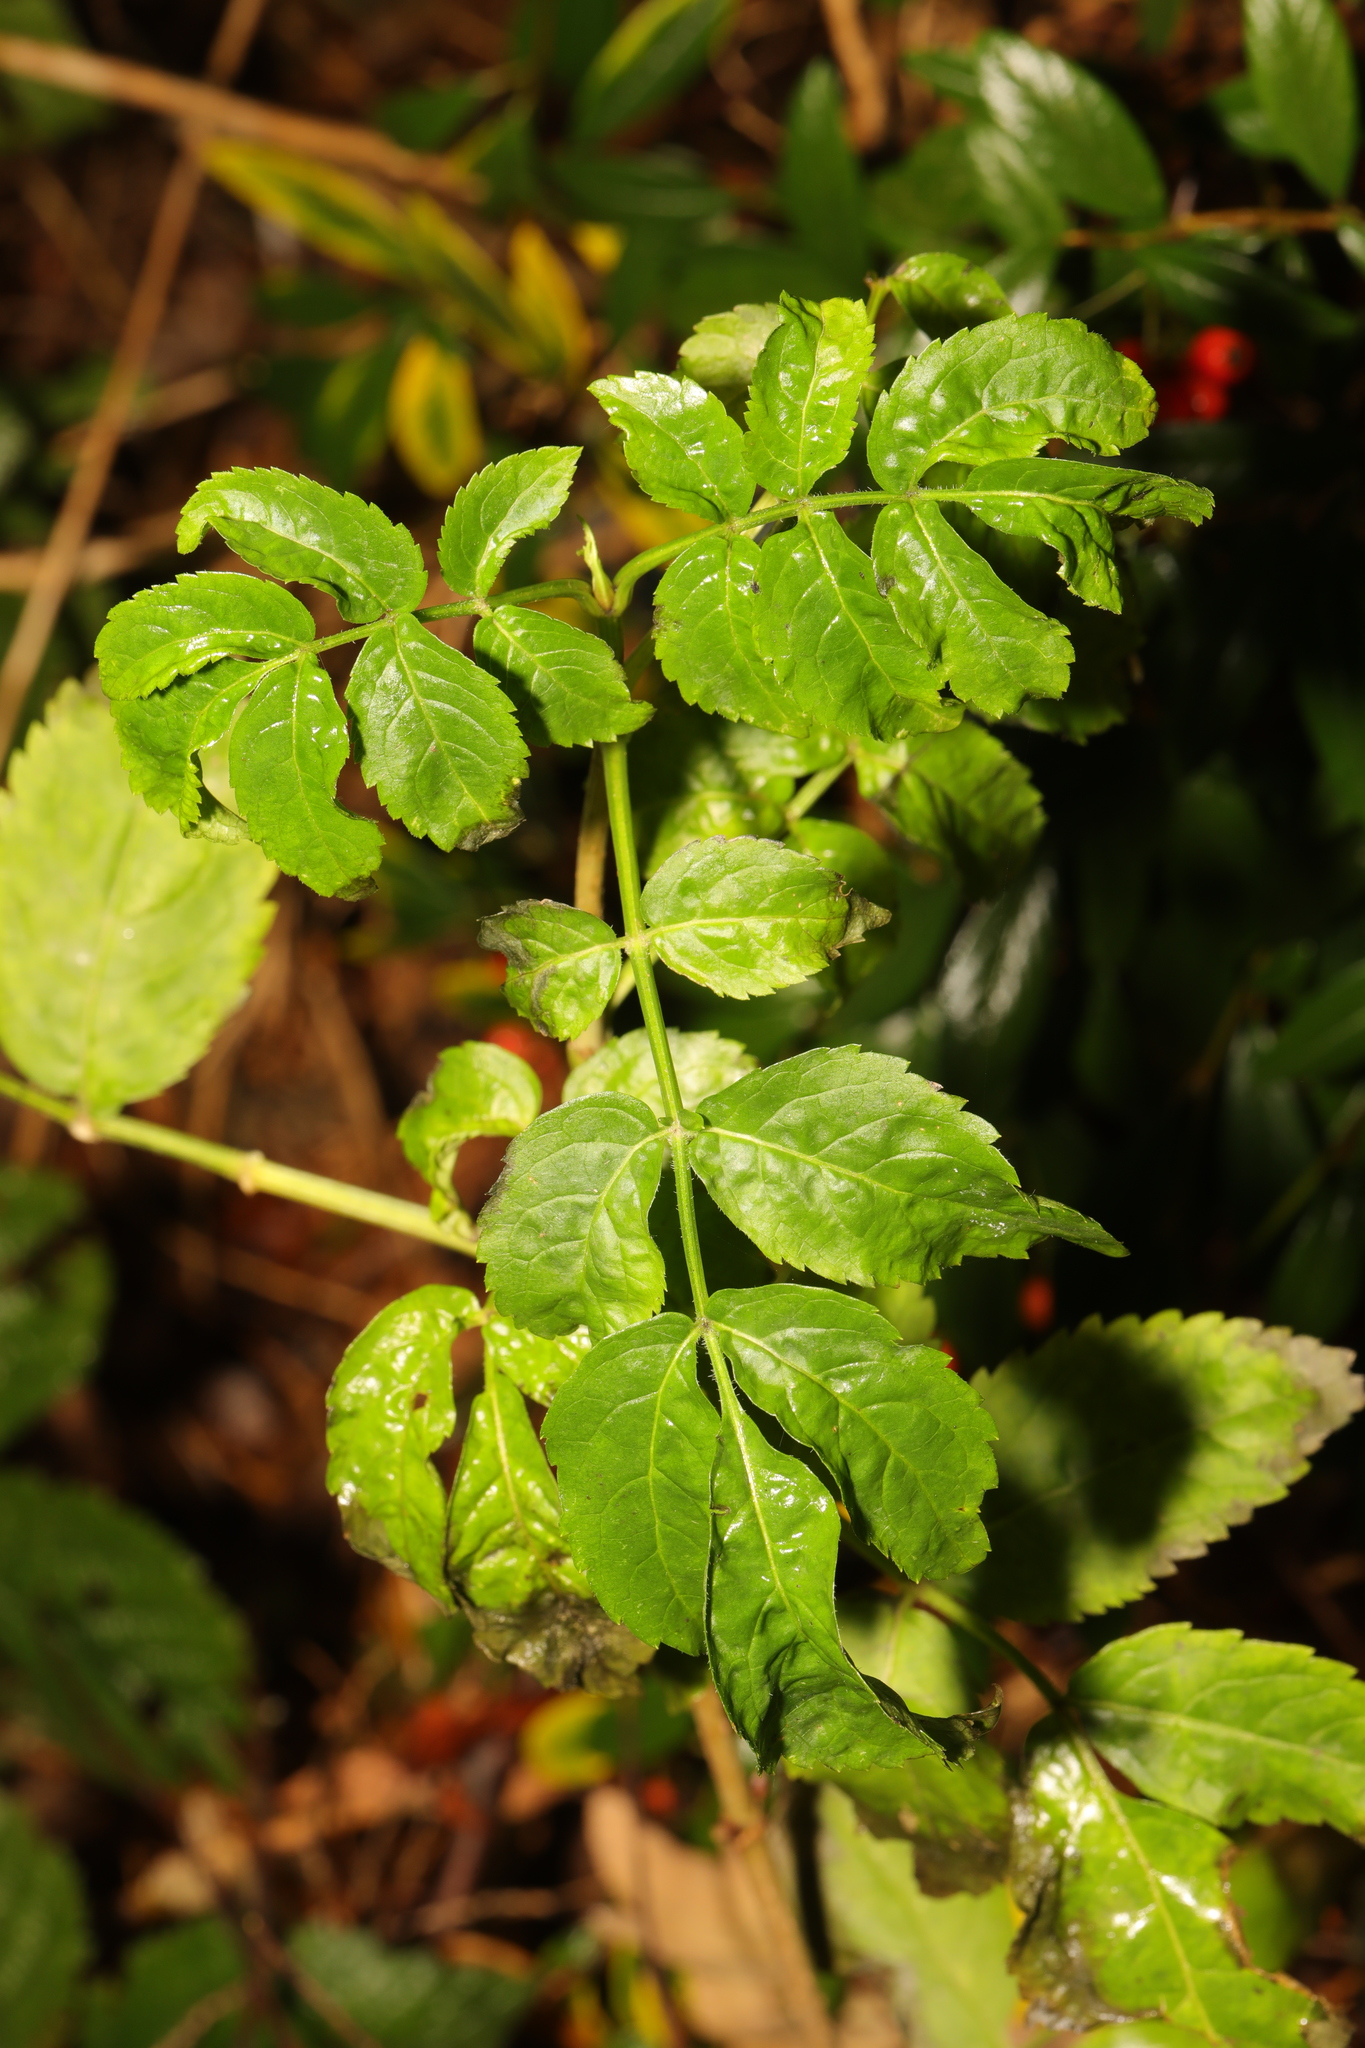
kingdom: Plantae
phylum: Tracheophyta
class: Magnoliopsida
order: Dipsacales
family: Viburnaceae
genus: Sambucus
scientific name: Sambucus nigra
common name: Elder
